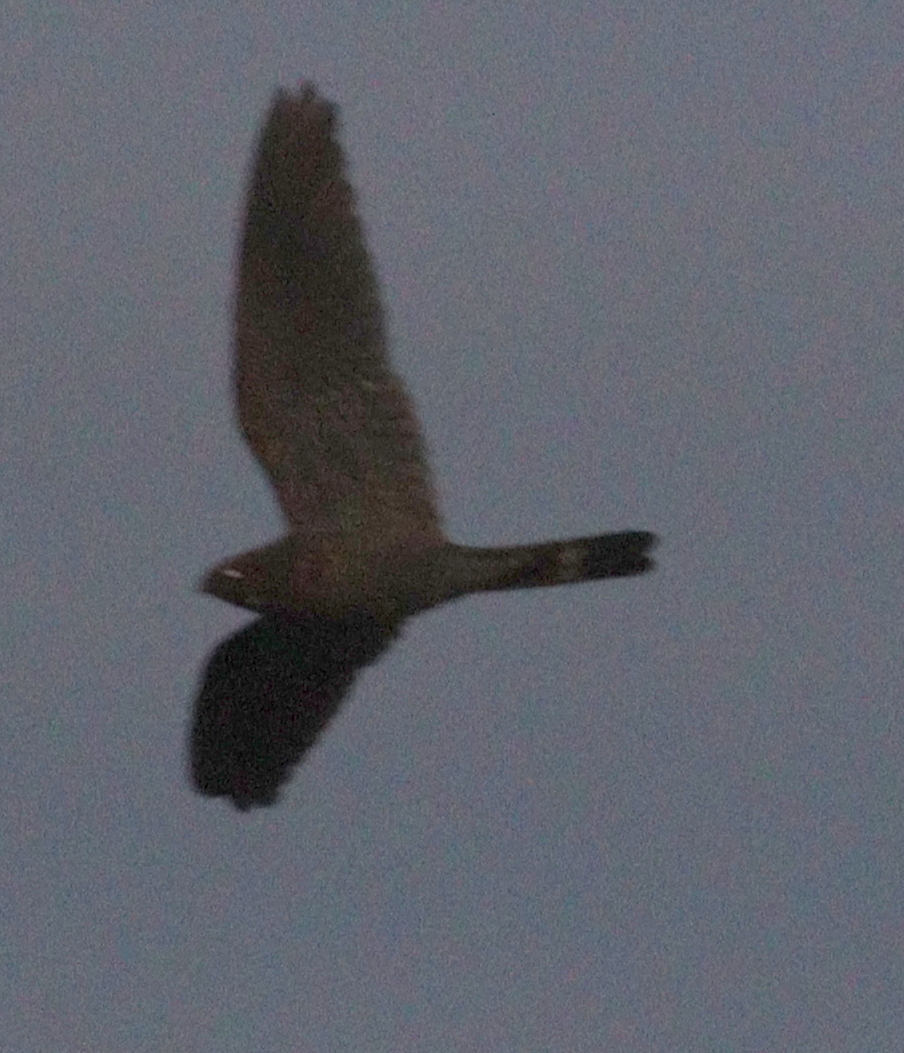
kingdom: Animalia
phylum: Chordata
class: Aves
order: Caprimulgiformes
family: Caprimulgidae
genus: Nyctiprogne
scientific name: Nyctiprogne leucopyga
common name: Band-tailed nighthawk
